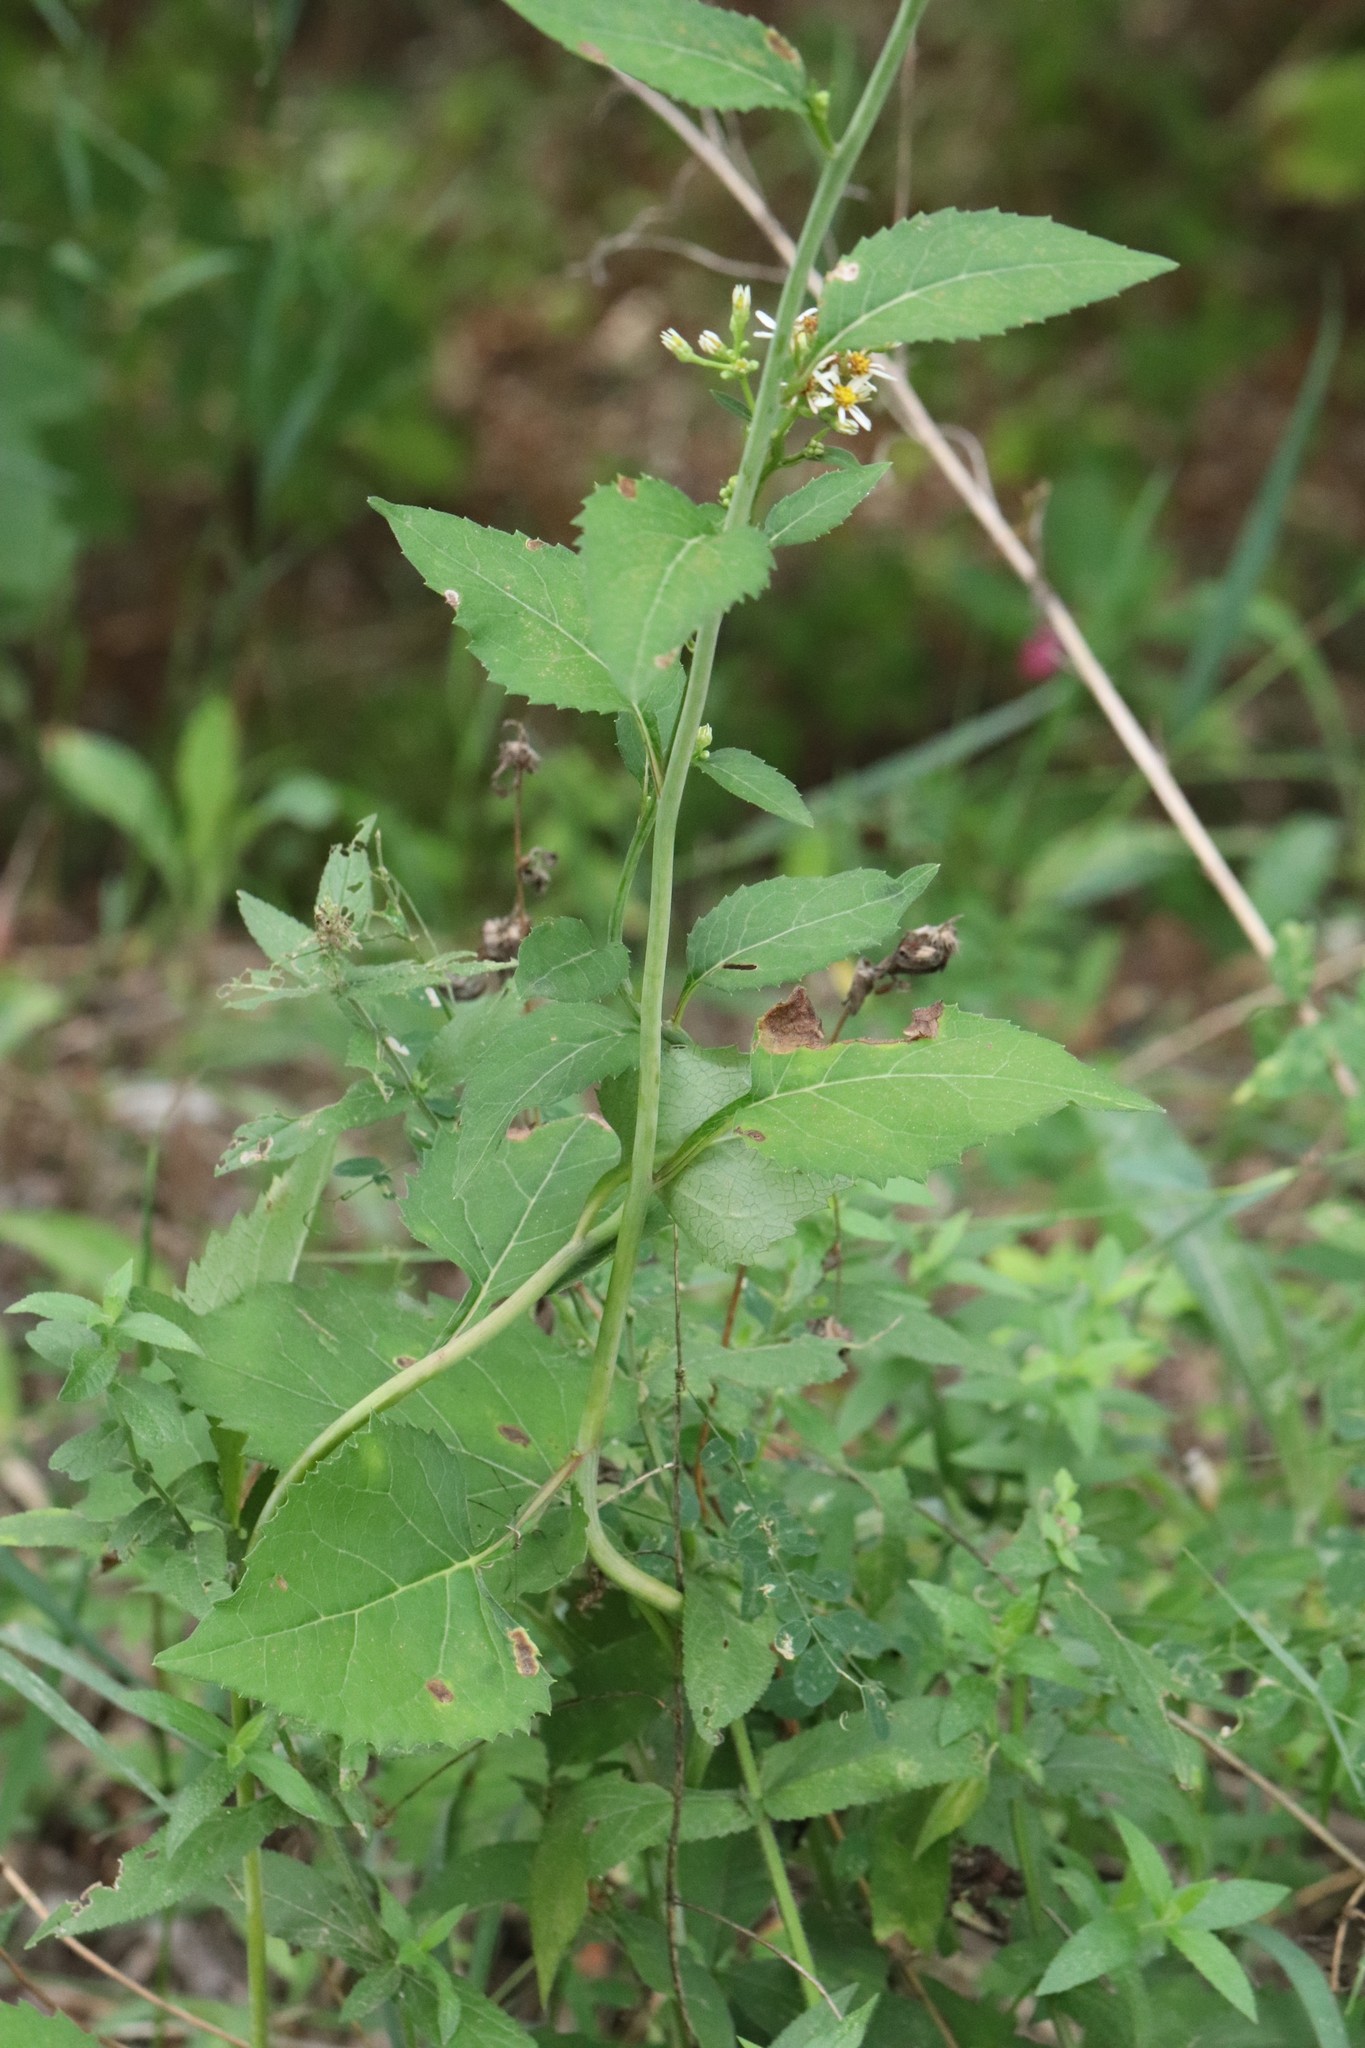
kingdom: Plantae
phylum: Tracheophyta
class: Magnoliopsida
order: Asterales
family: Asteraceae
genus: Aster
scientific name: Aster scaber
